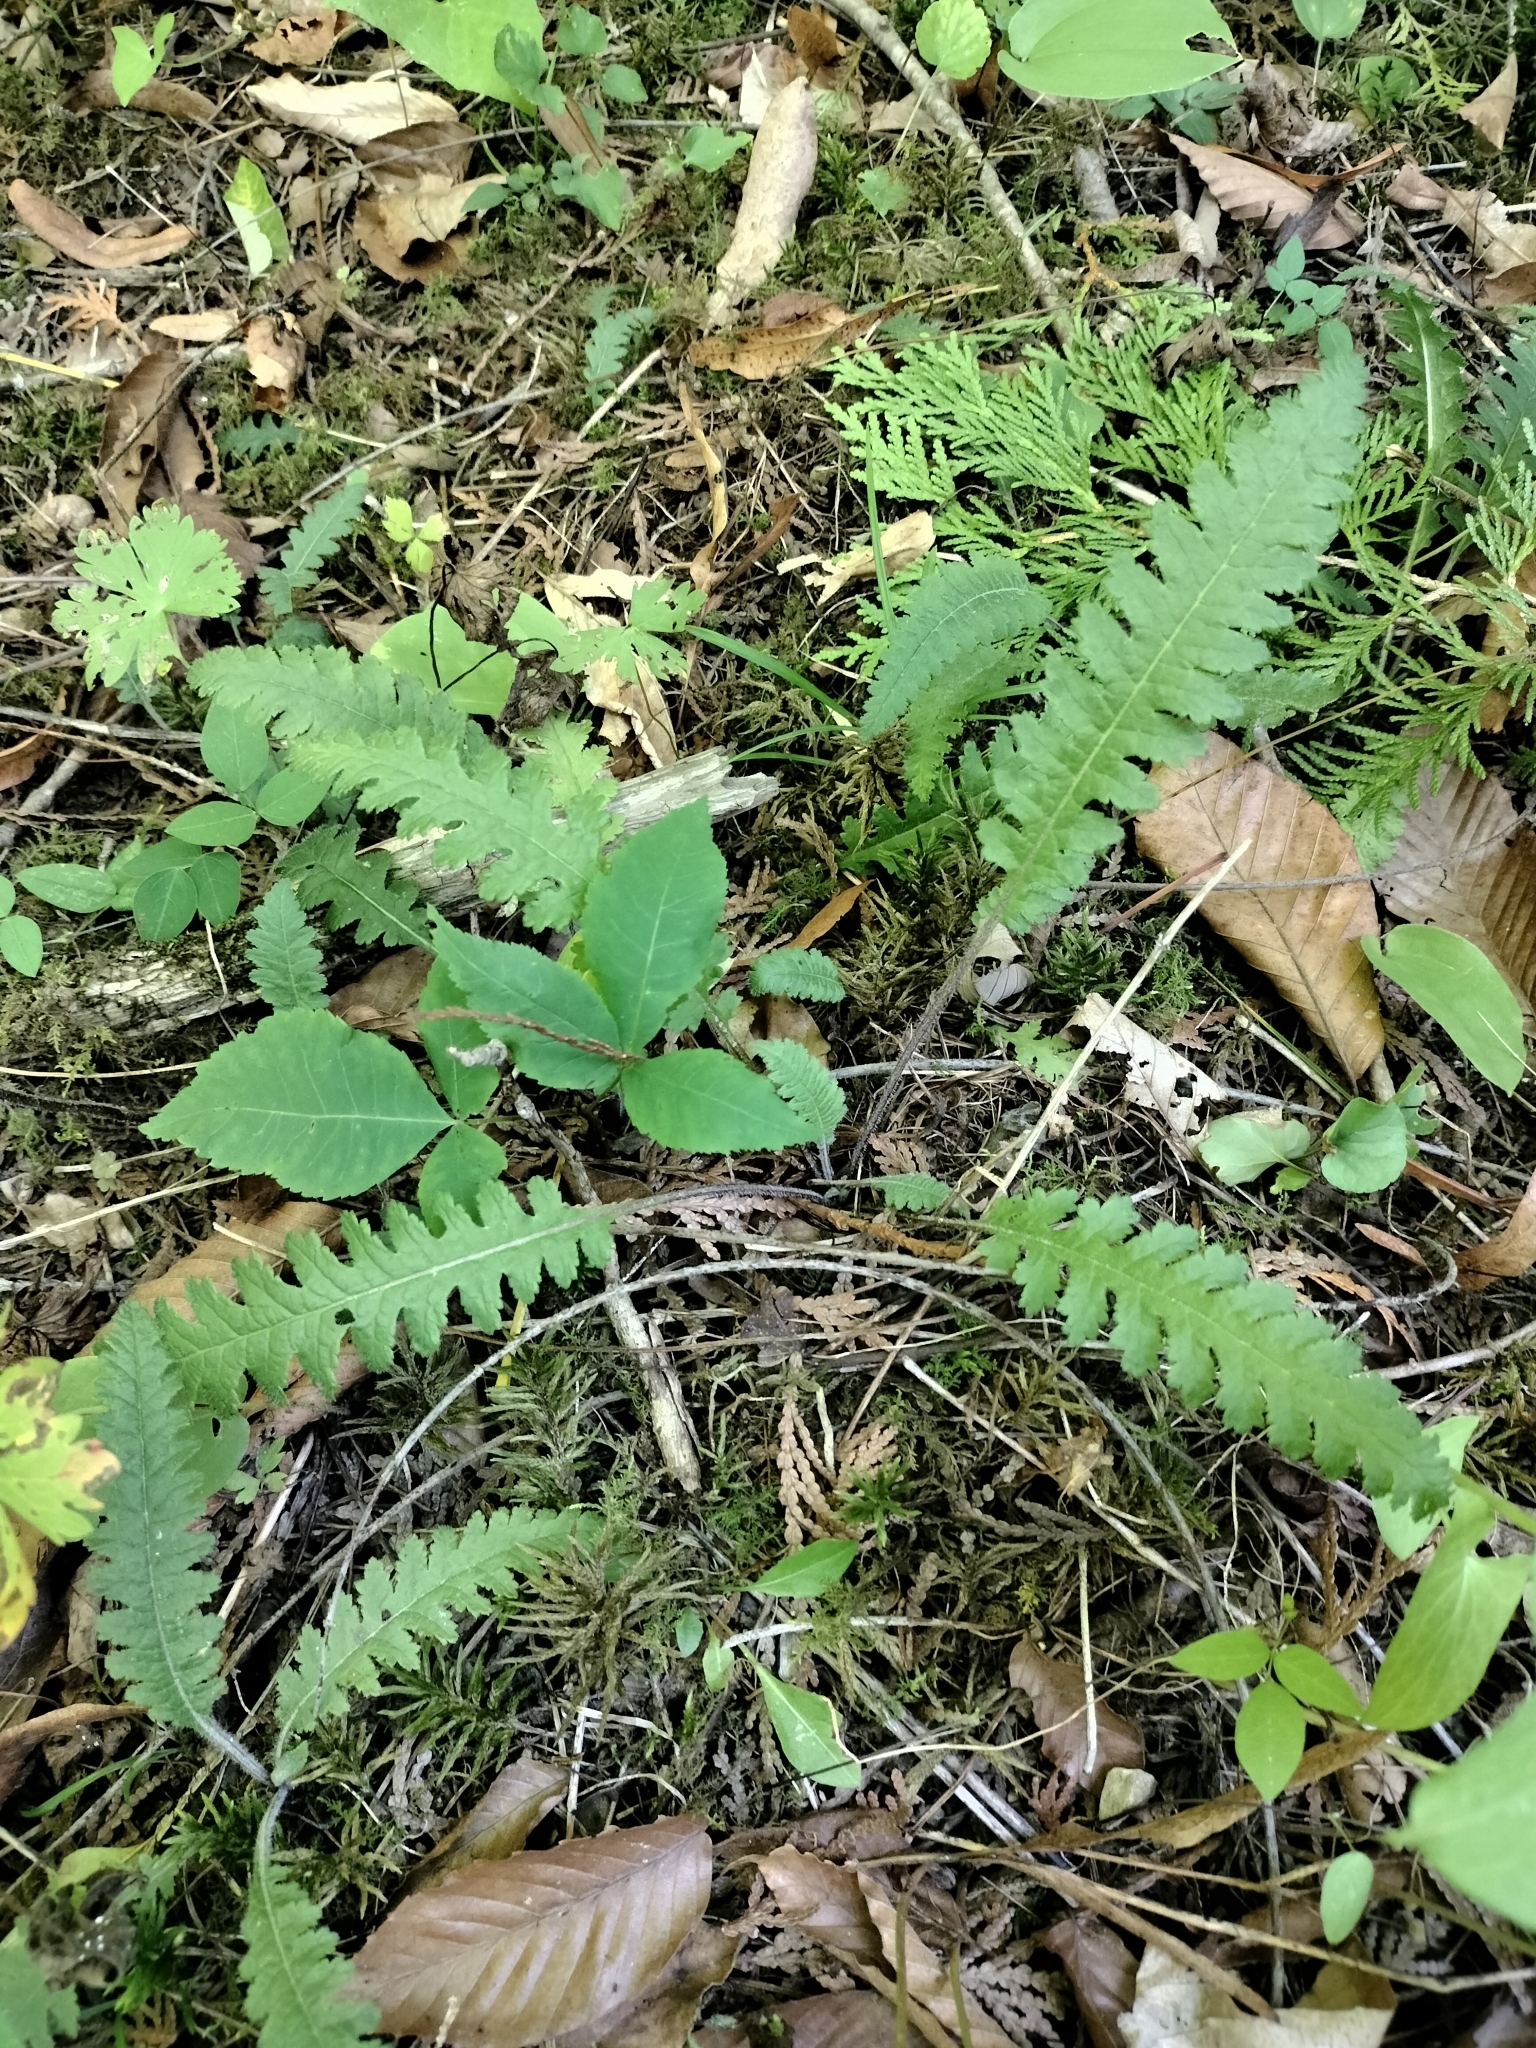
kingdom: Plantae
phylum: Tracheophyta
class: Magnoliopsida
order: Lamiales
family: Orobanchaceae
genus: Pedicularis
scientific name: Pedicularis canadensis
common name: Early lousewort
